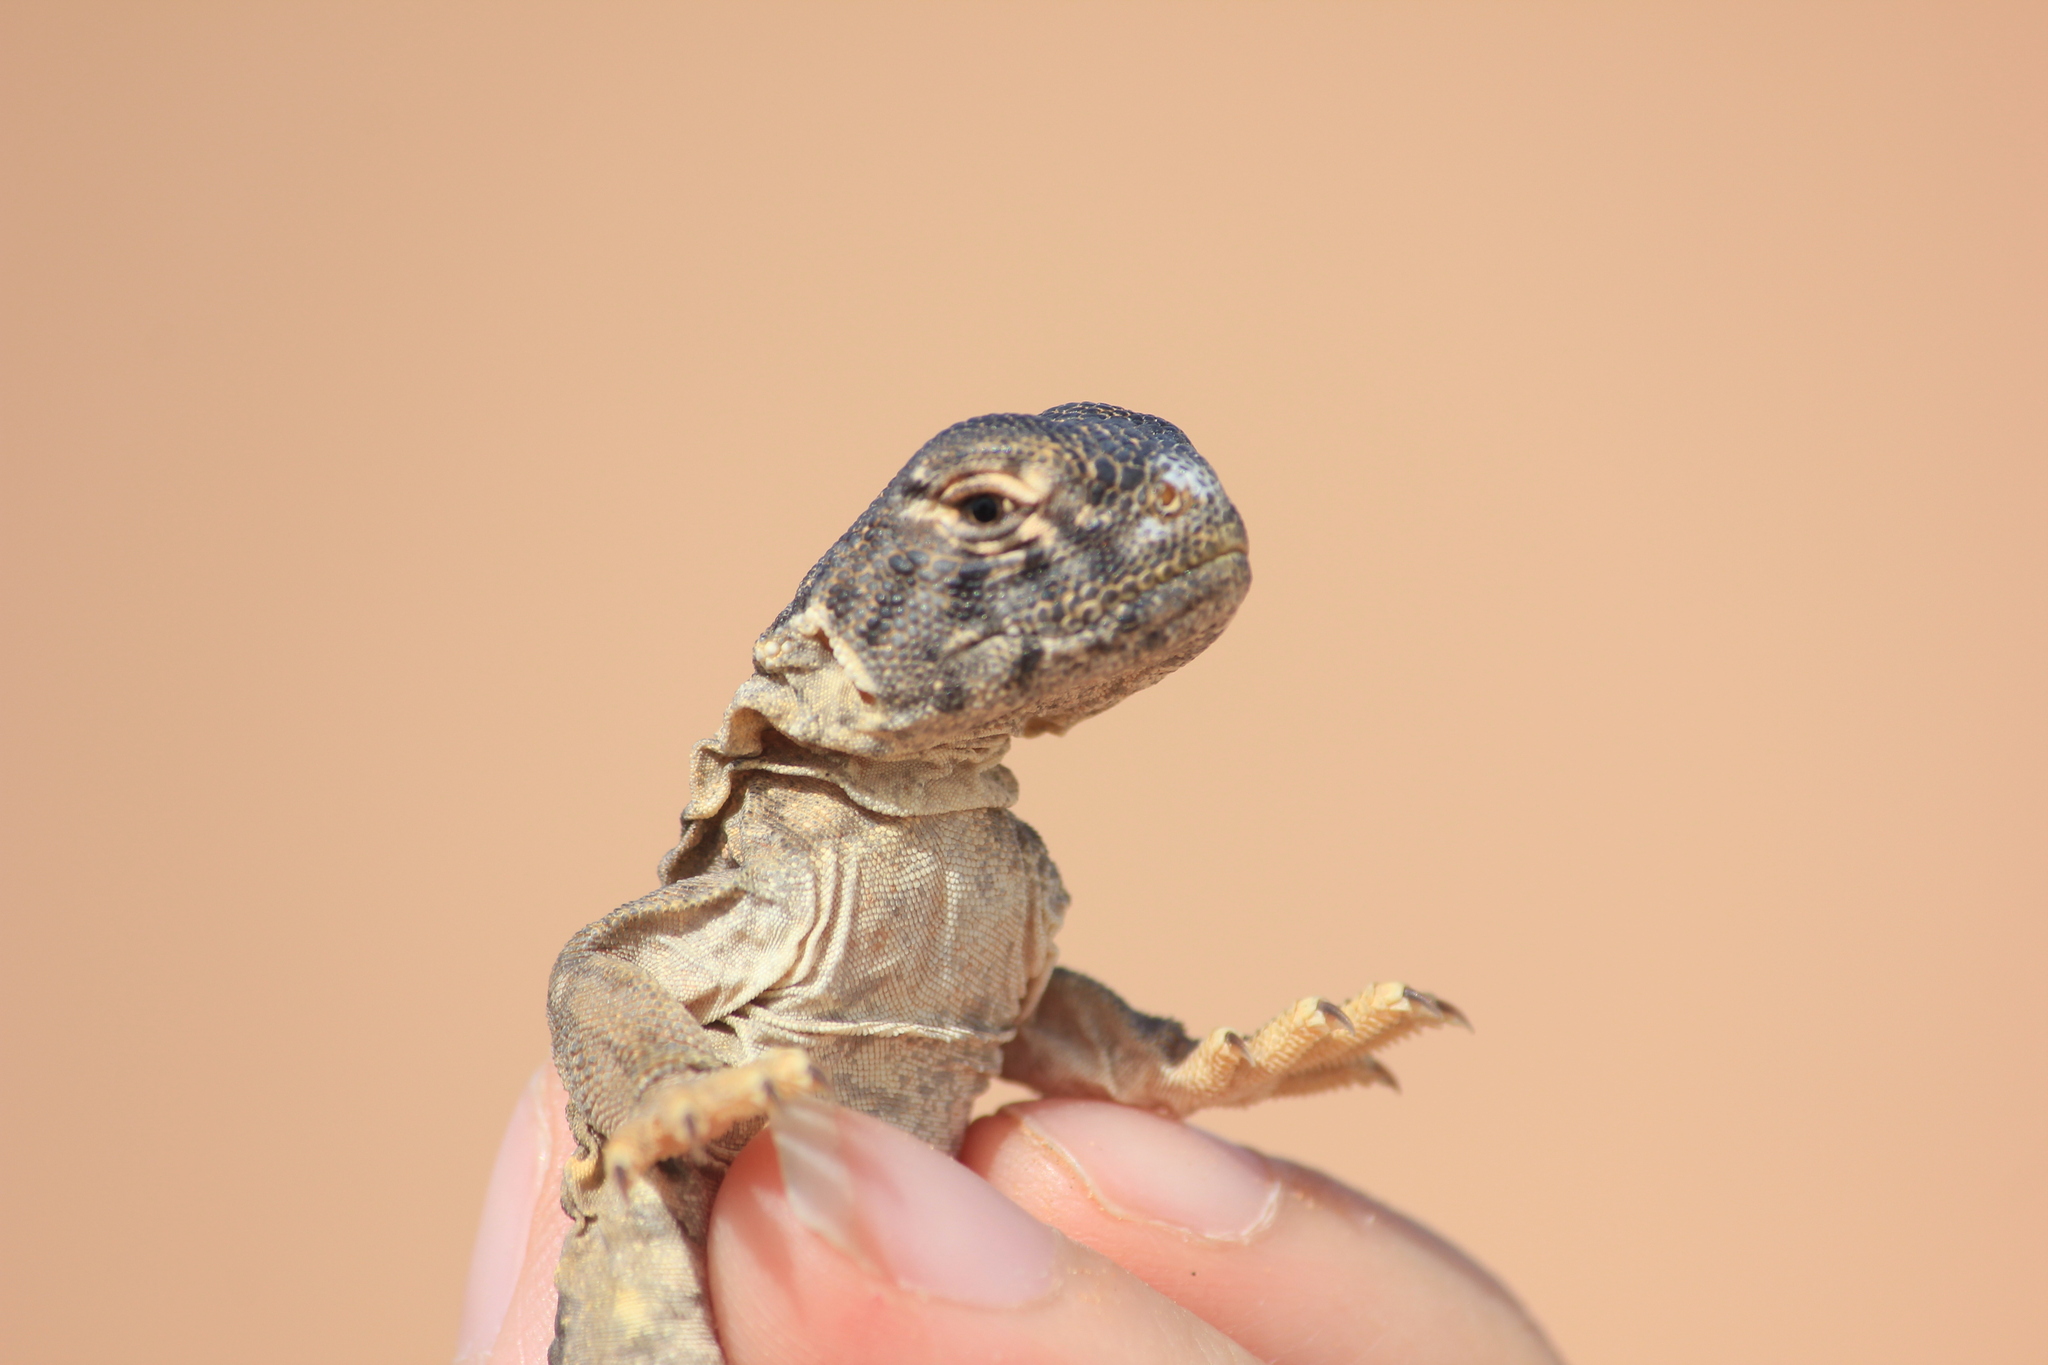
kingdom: Animalia
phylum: Chordata
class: Squamata
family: Agamidae
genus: Uromastyx
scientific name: Uromastyx aegyptia
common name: Egyptian mastigure
